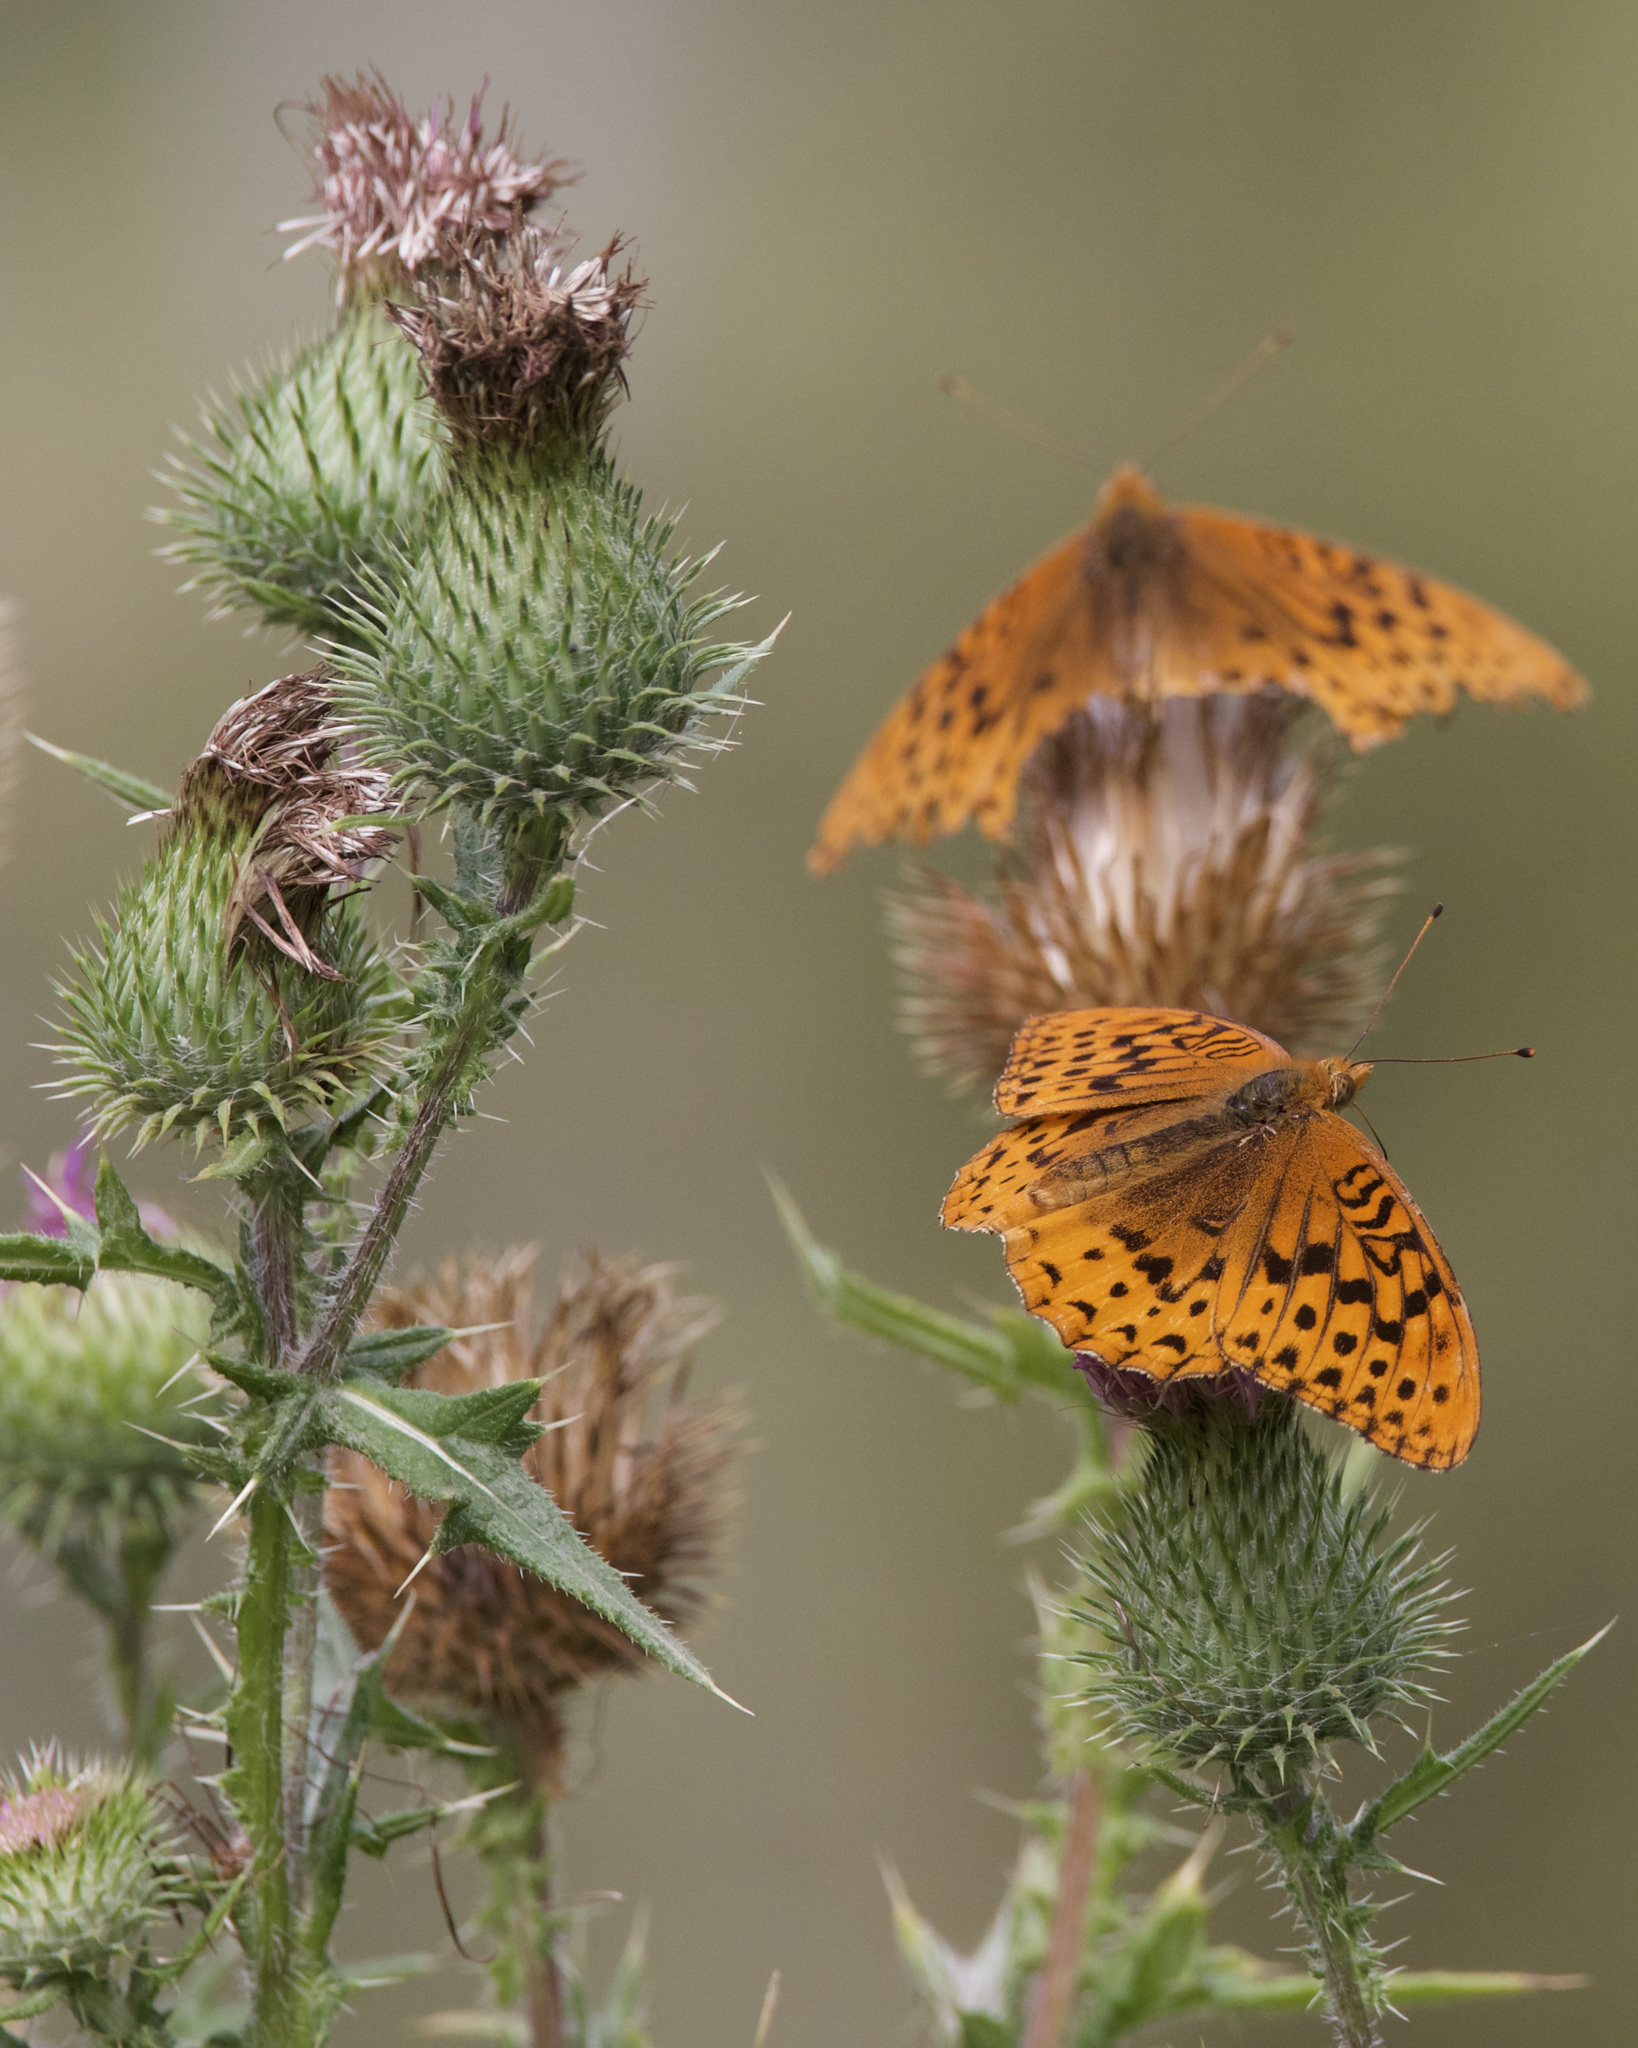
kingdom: Animalia
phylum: Arthropoda
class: Insecta
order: Lepidoptera
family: Nymphalidae
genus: Speyeria
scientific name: Speyeria cybele
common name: Great spangled fritillary
